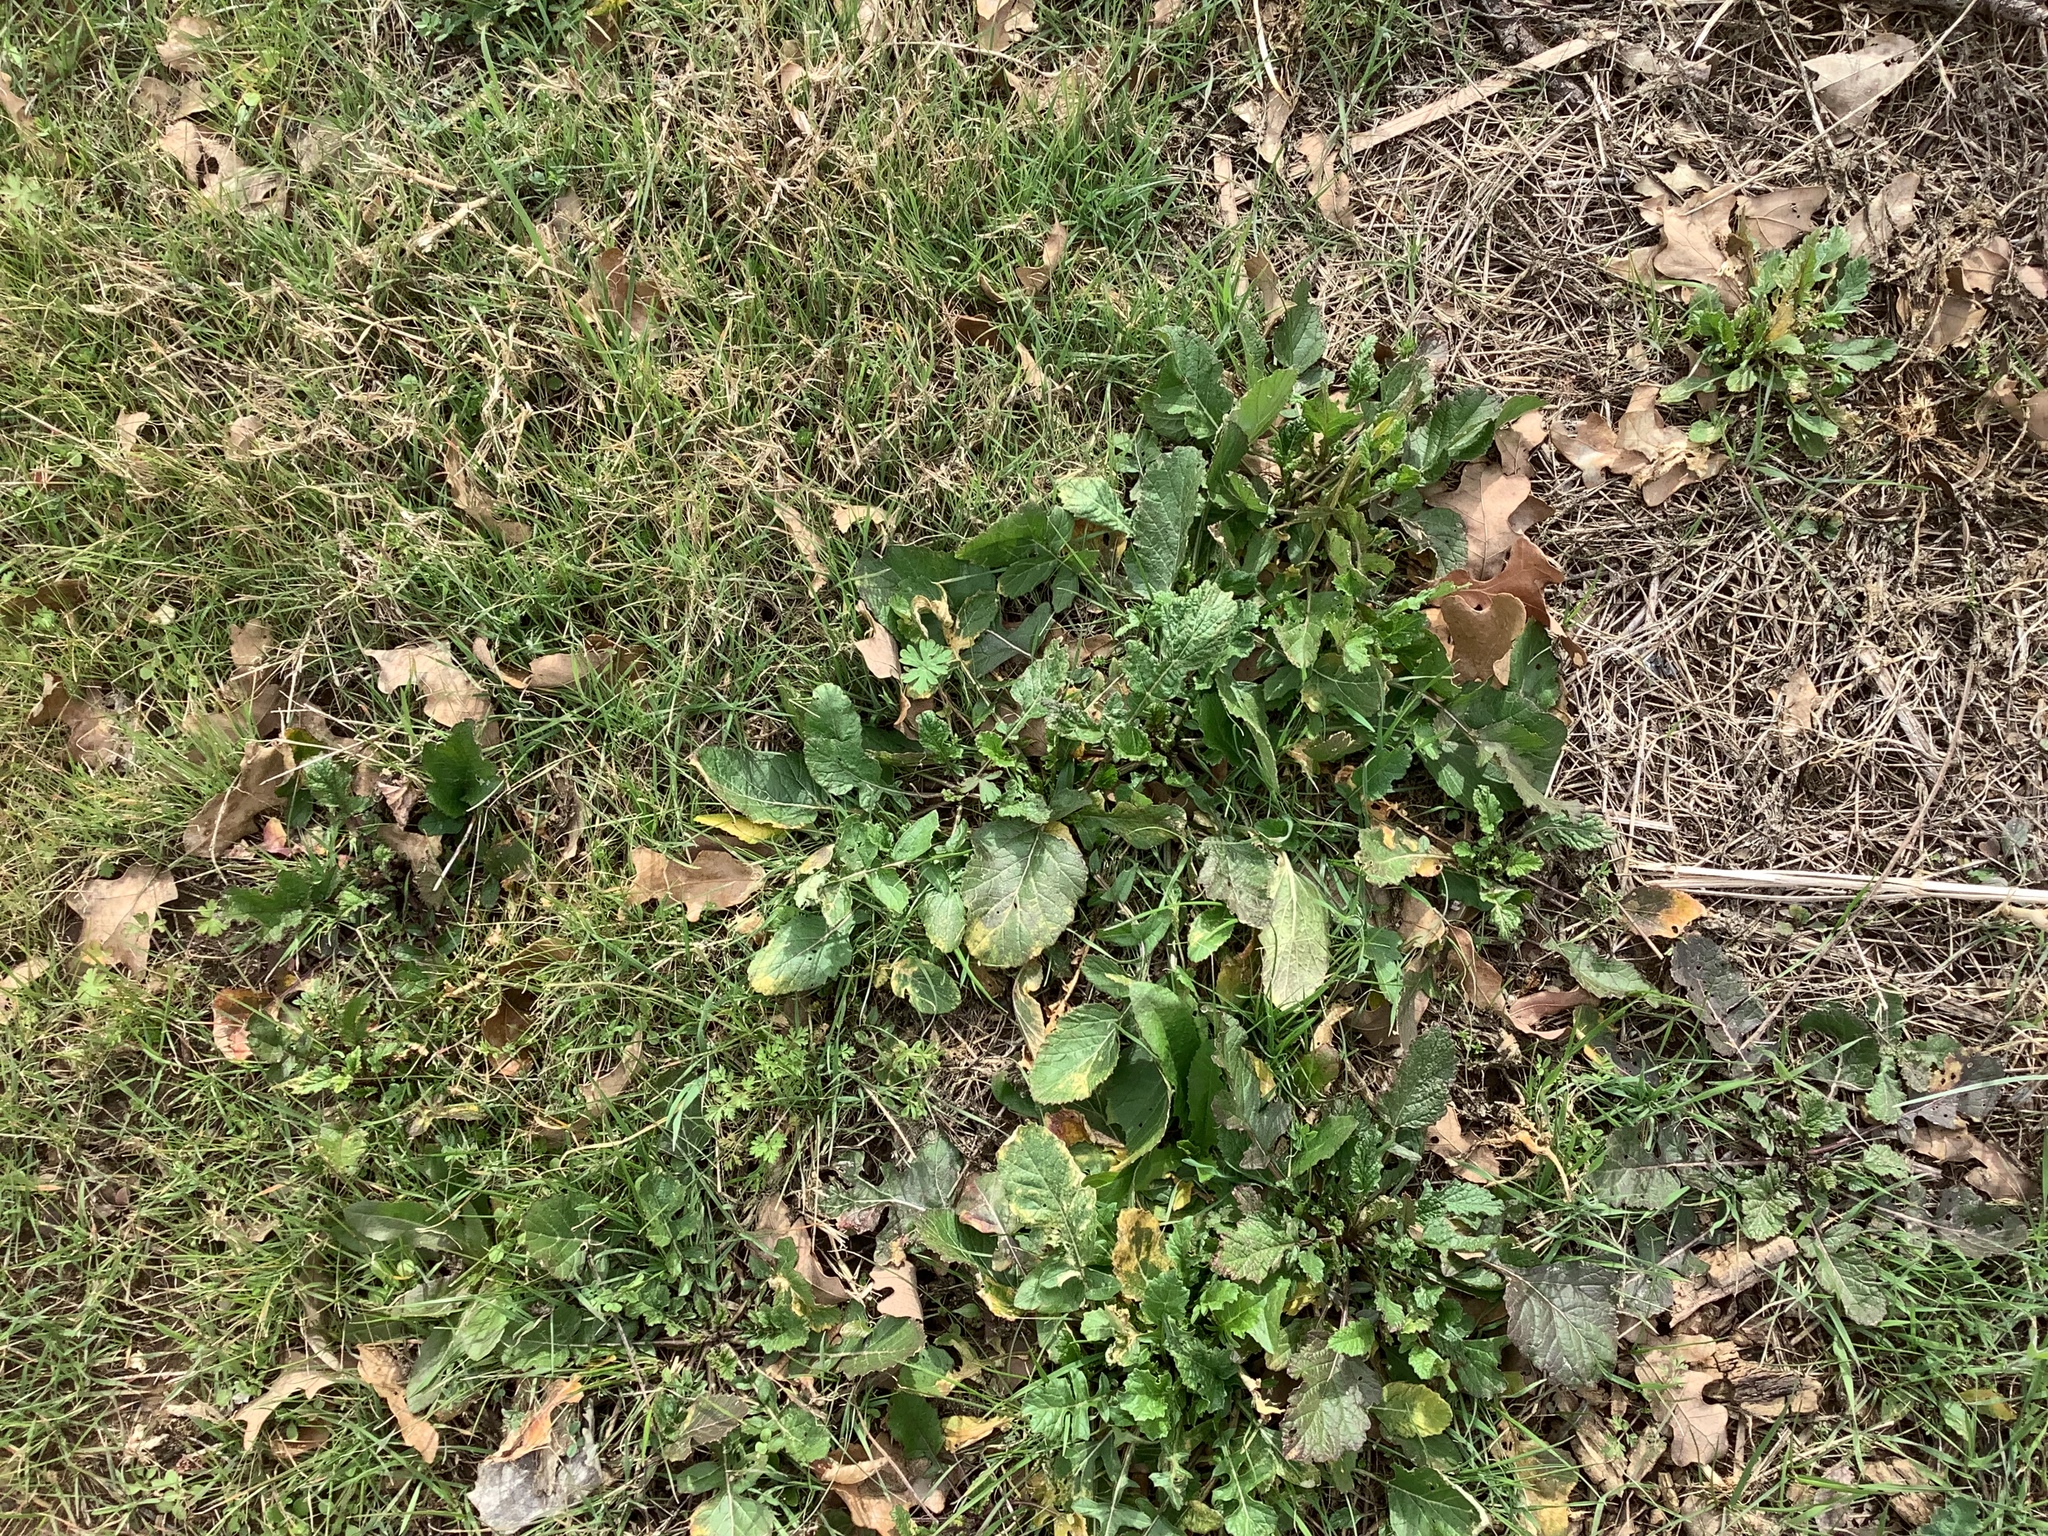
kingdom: Plantae
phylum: Tracheophyta
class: Magnoliopsida
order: Brassicales
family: Brassicaceae
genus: Rapistrum
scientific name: Rapistrum rugosum
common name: Annual bastardcabbage
